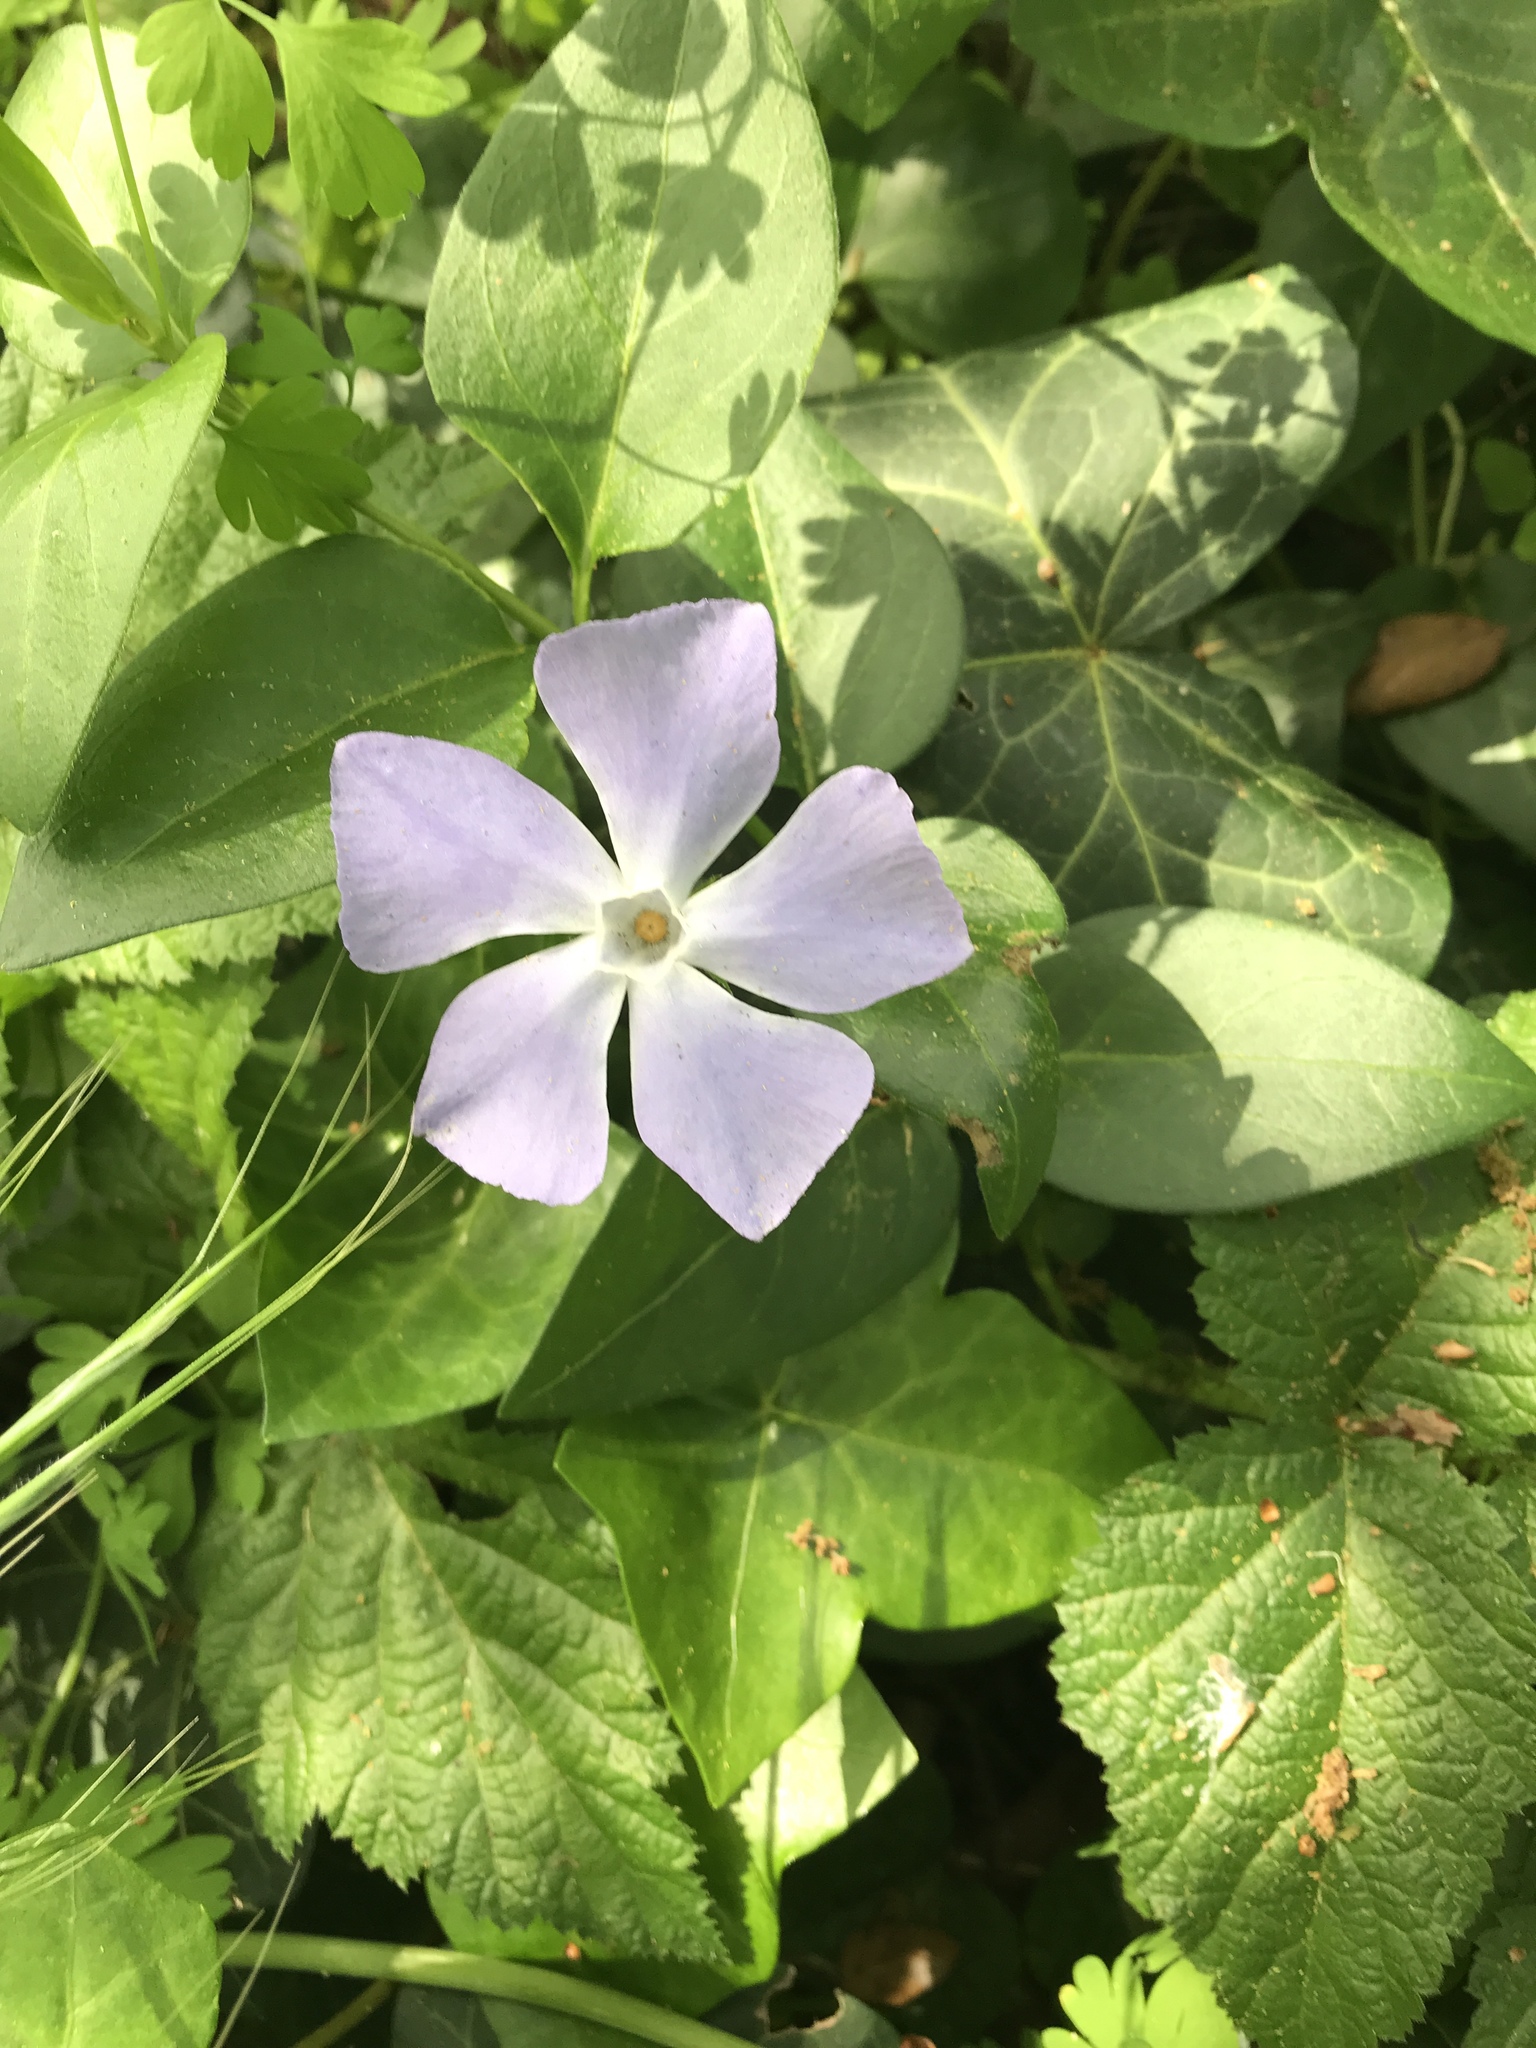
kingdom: Plantae
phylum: Tracheophyta
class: Magnoliopsida
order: Gentianales
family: Apocynaceae
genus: Vinca
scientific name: Vinca major
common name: Greater periwinkle
